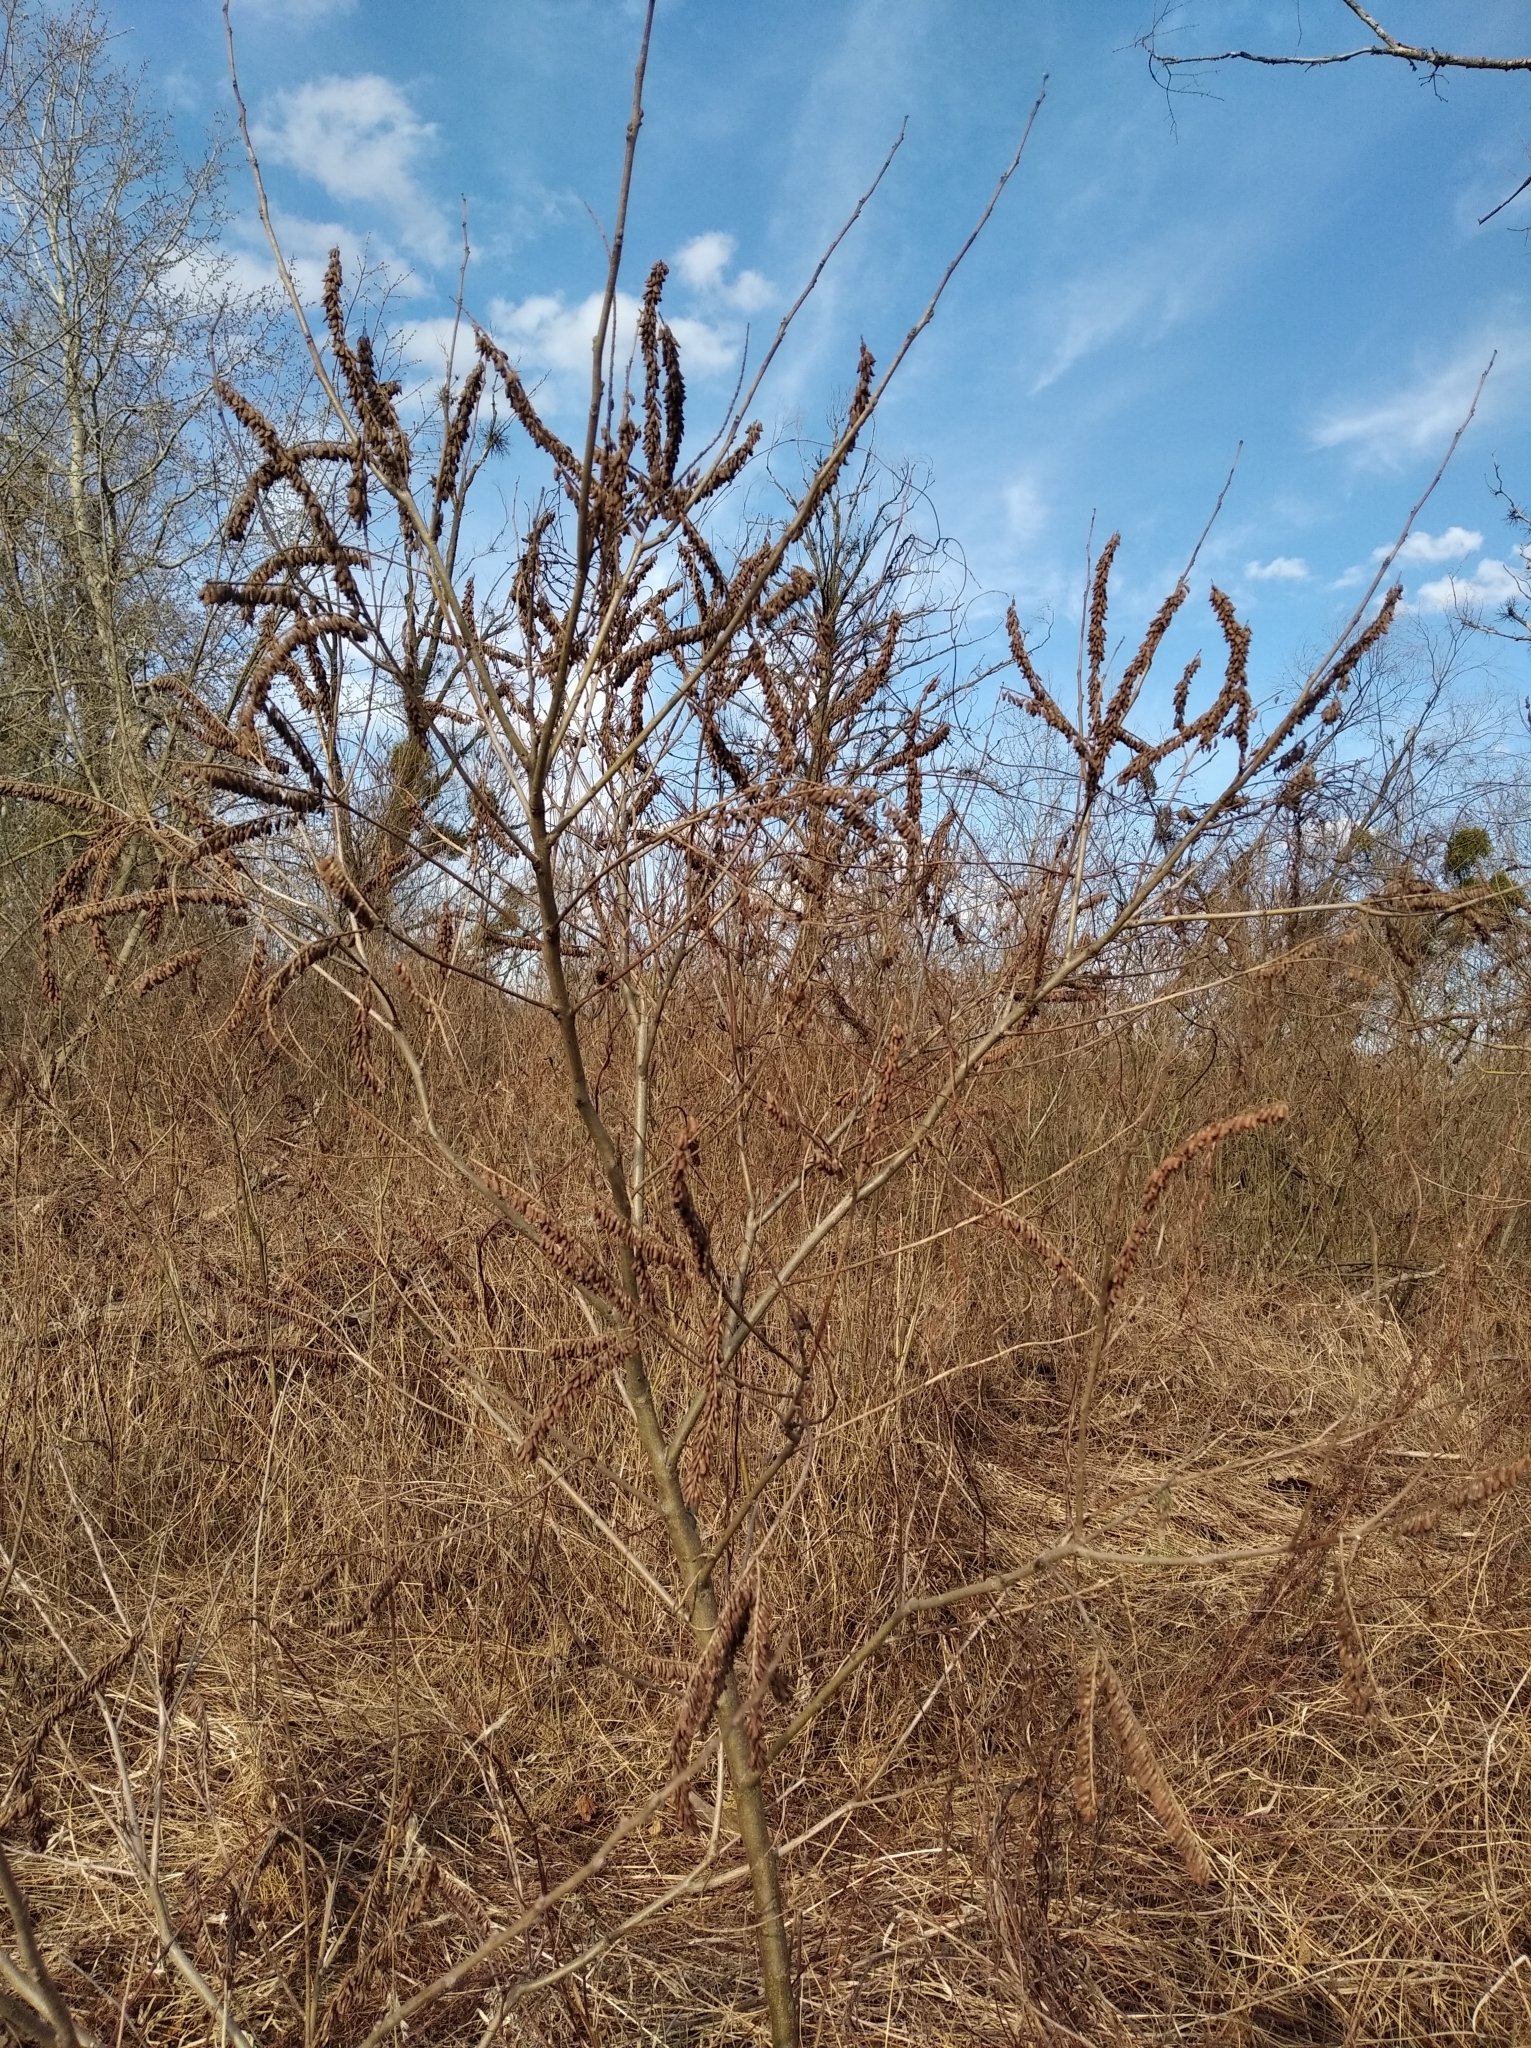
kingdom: Plantae
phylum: Tracheophyta
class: Magnoliopsida
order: Fabales
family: Fabaceae
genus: Amorpha
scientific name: Amorpha fruticosa
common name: False indigo
